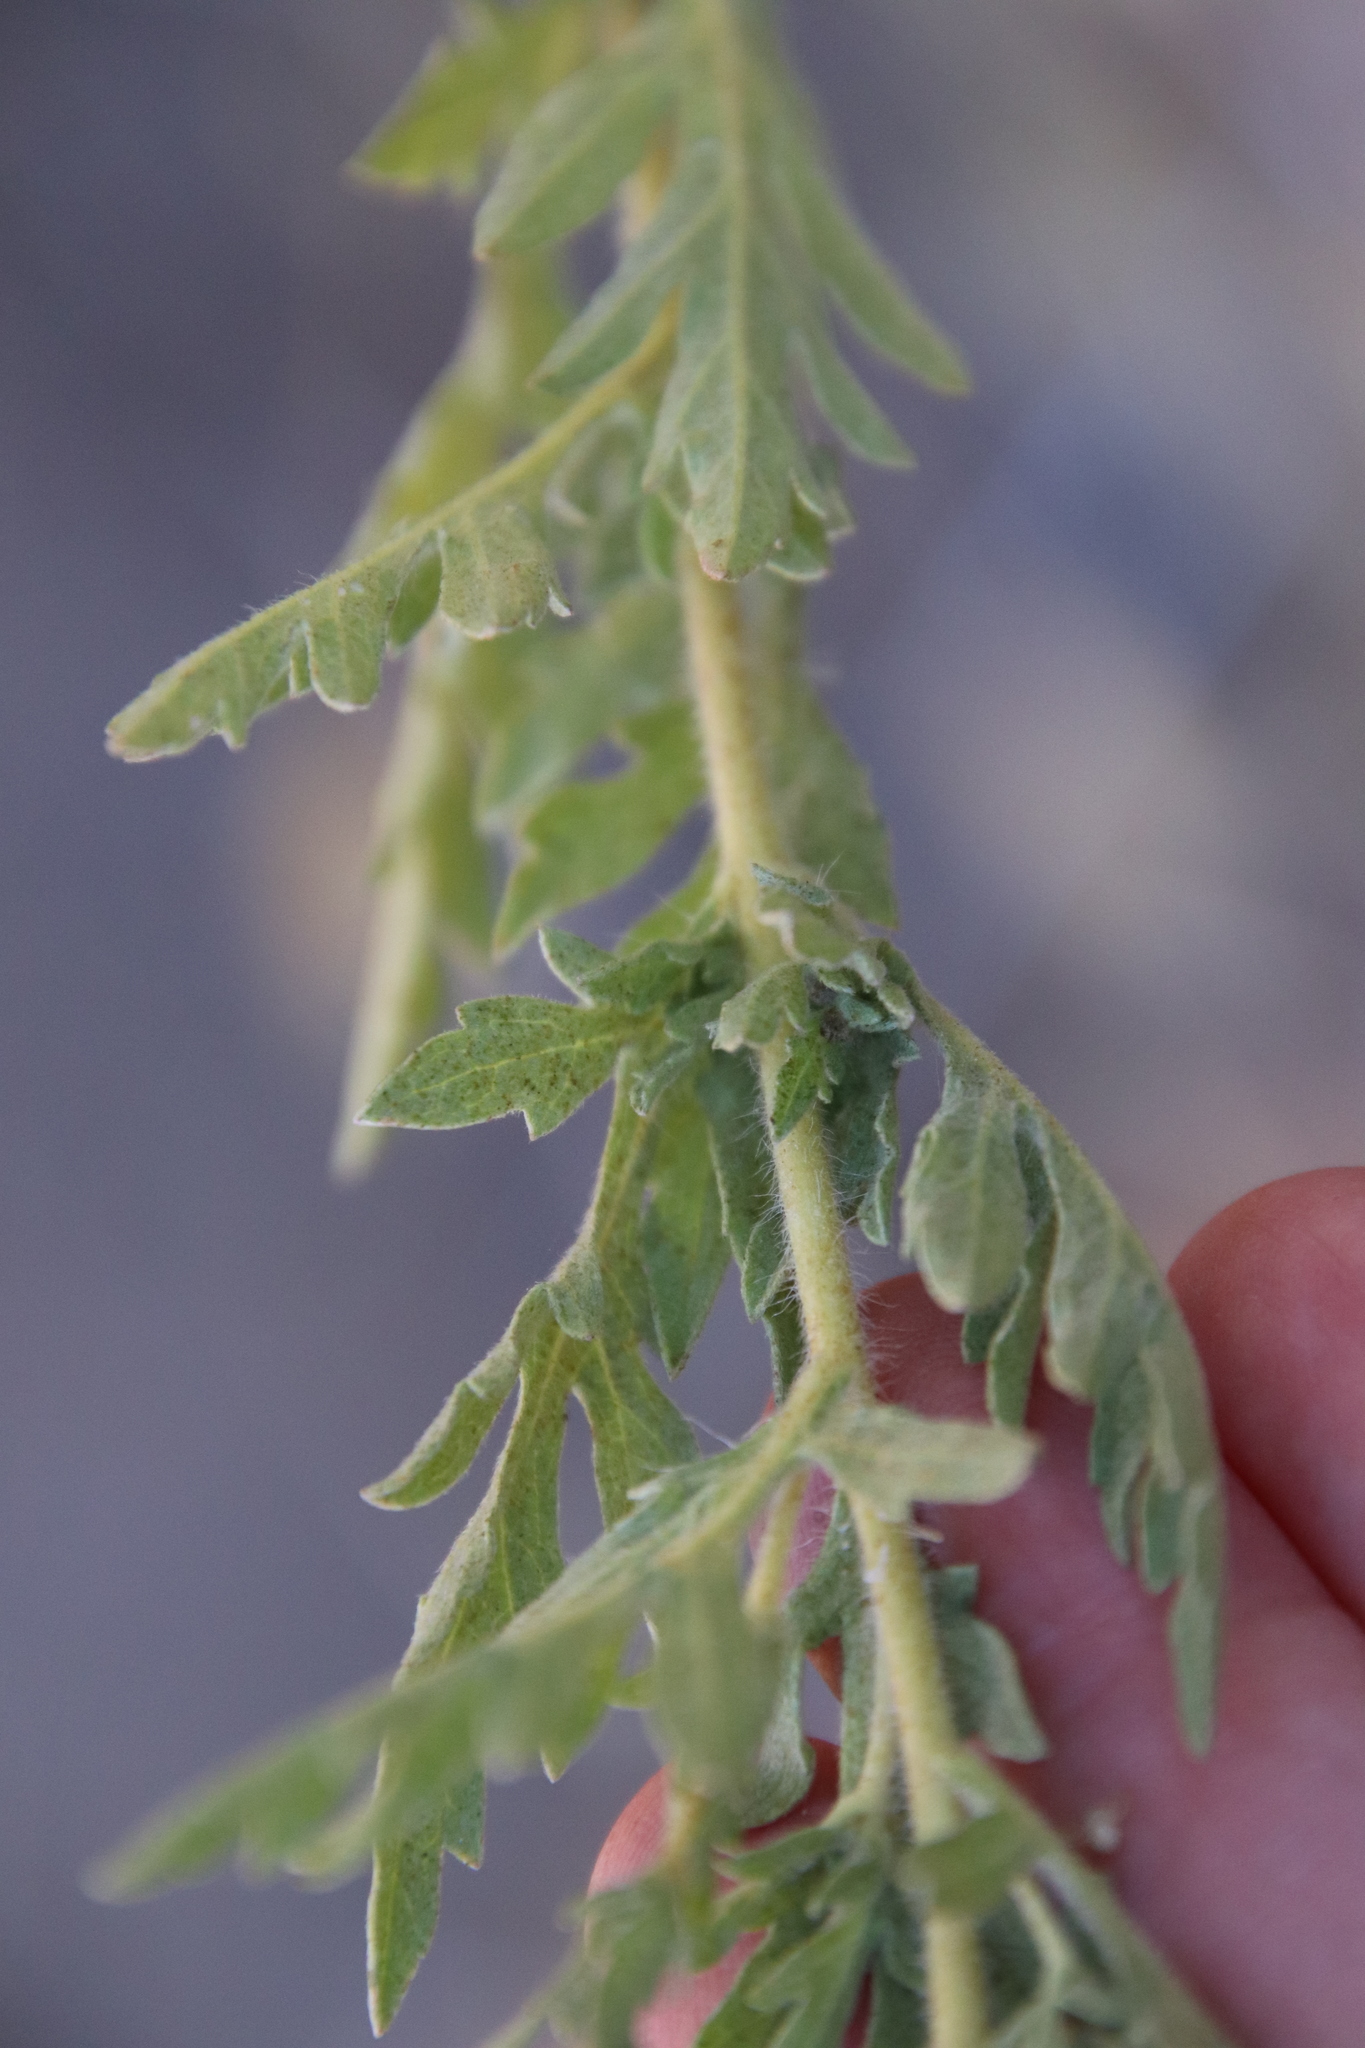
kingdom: Plantae
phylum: Tracheophyta
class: Magnoliopsida
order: Asterales
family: Asteraceae
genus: Ambrosia
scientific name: Ambrosia psilostachya
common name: Perennial ragweed
